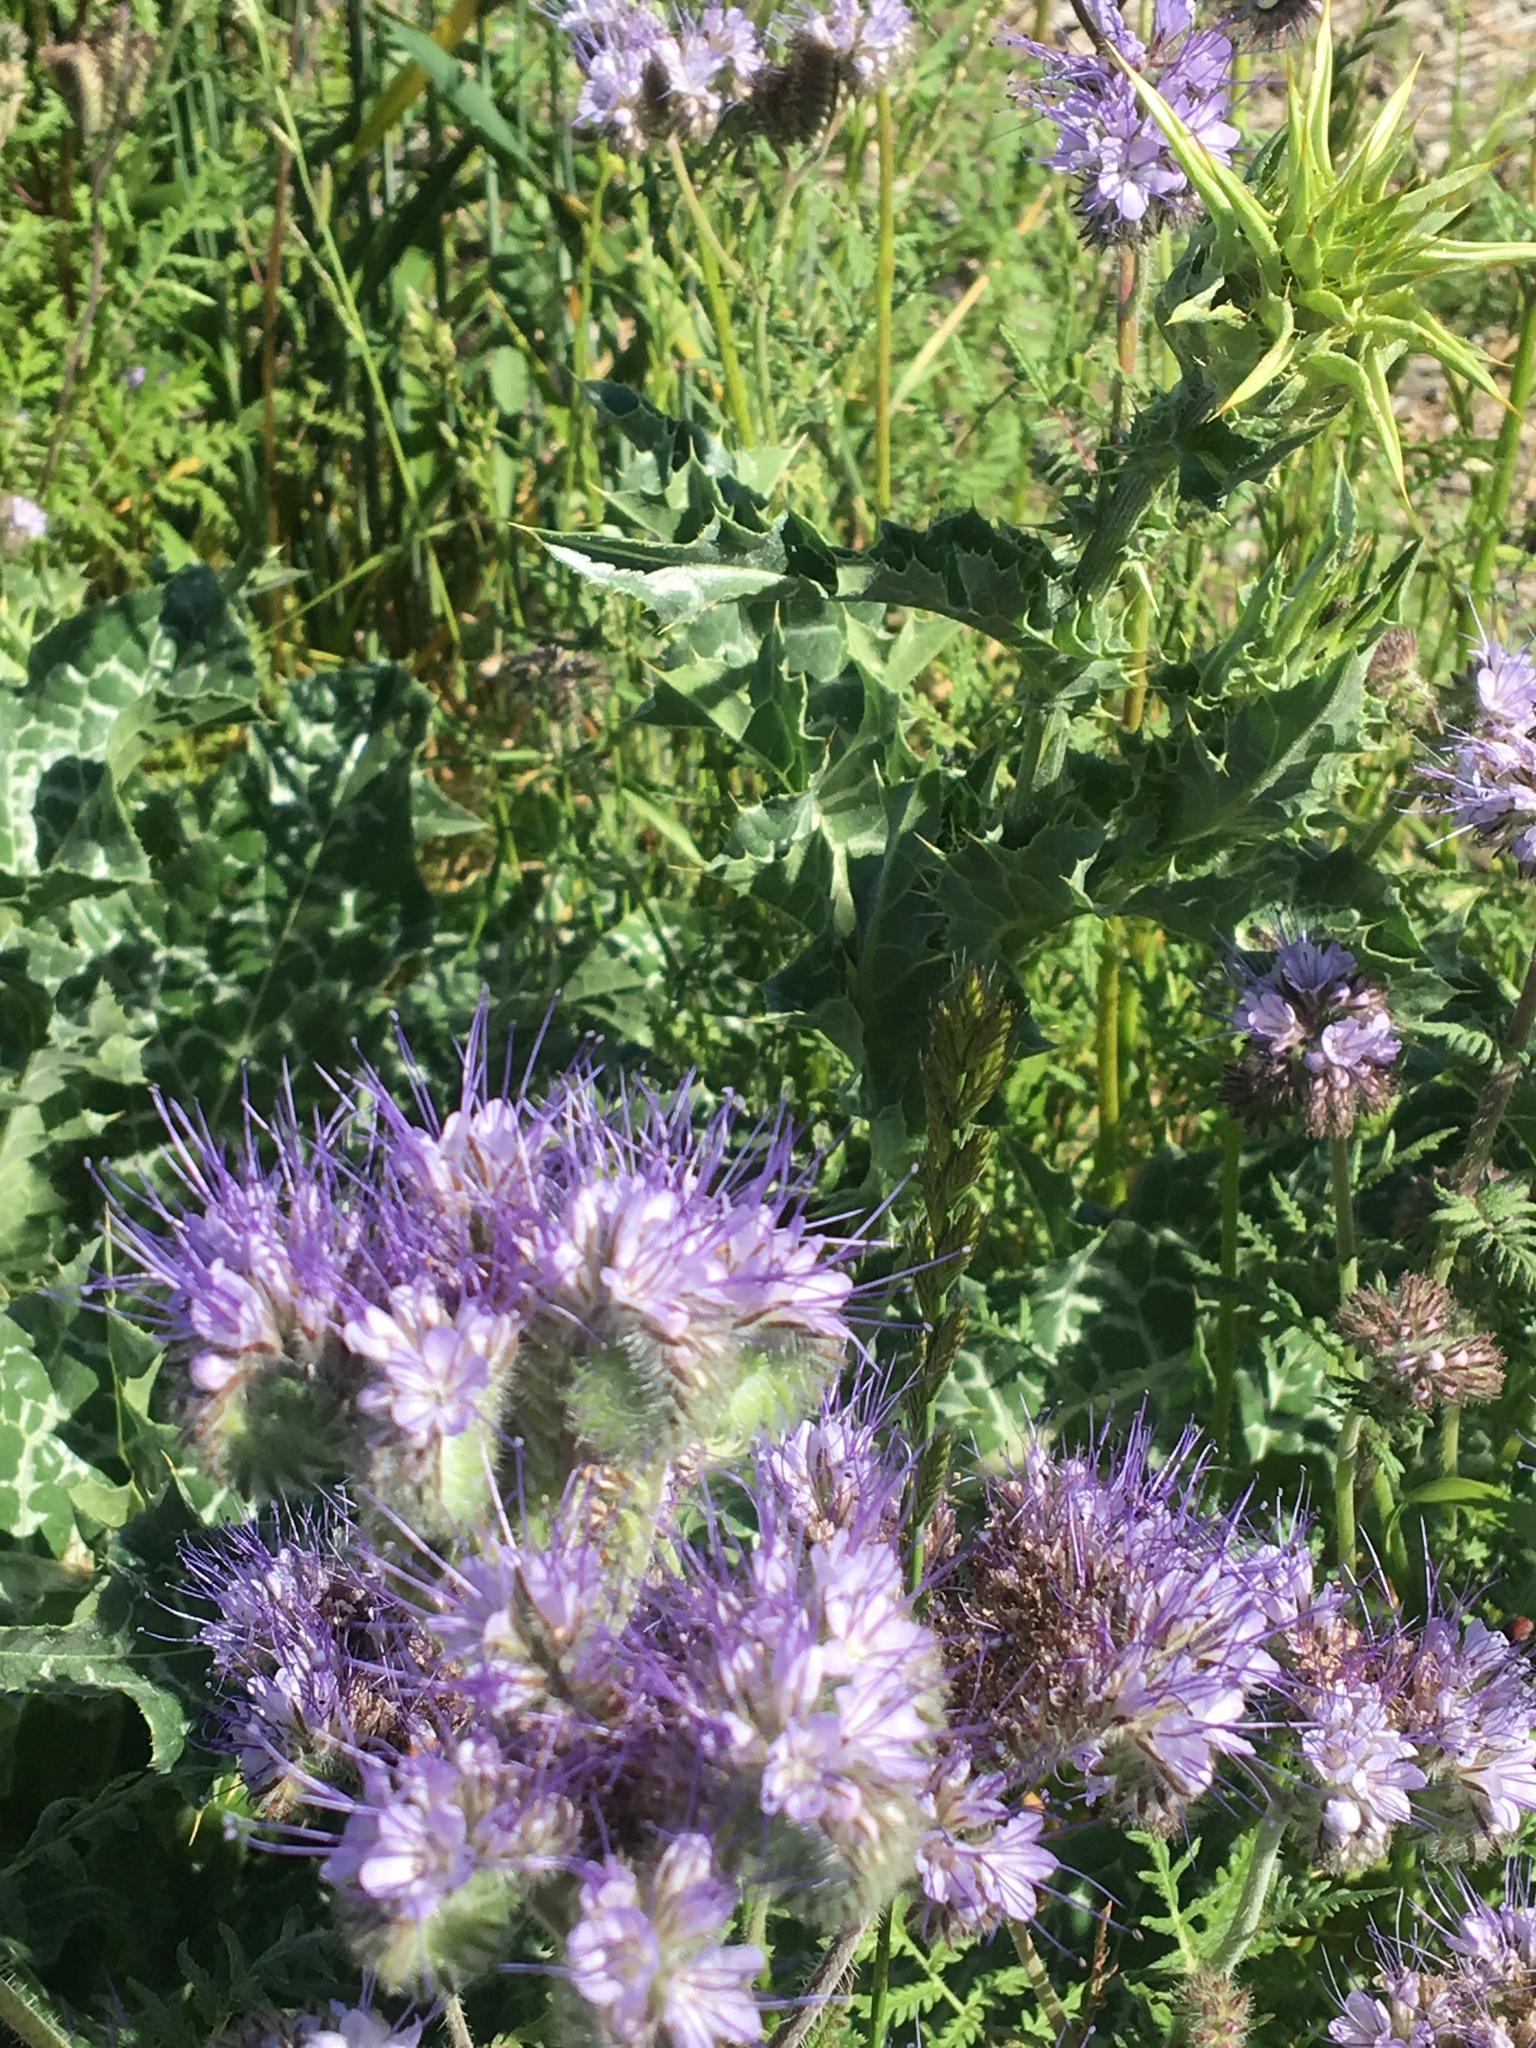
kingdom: Plantae
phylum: Tracheophyta
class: Magnoliopsida
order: Boraginales
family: Hydrophyllaceae
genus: Phacelia
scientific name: Phacelia tanacetifolia
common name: Phacelia
